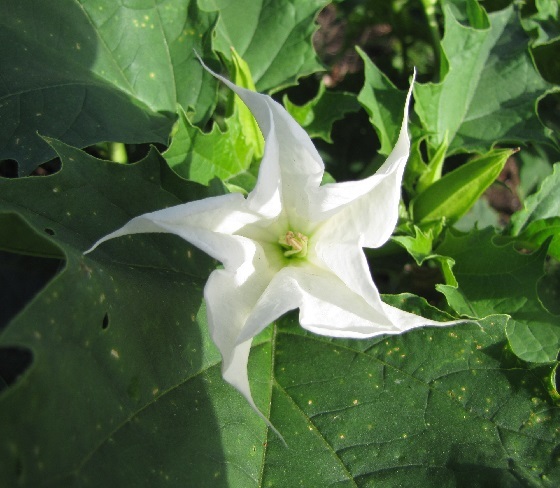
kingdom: Plantae
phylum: Tracheophyta
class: Magnoliopsida
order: Solanales
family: Solanaceae
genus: Datura
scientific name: Datura stramonium
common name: Thorn-apple
